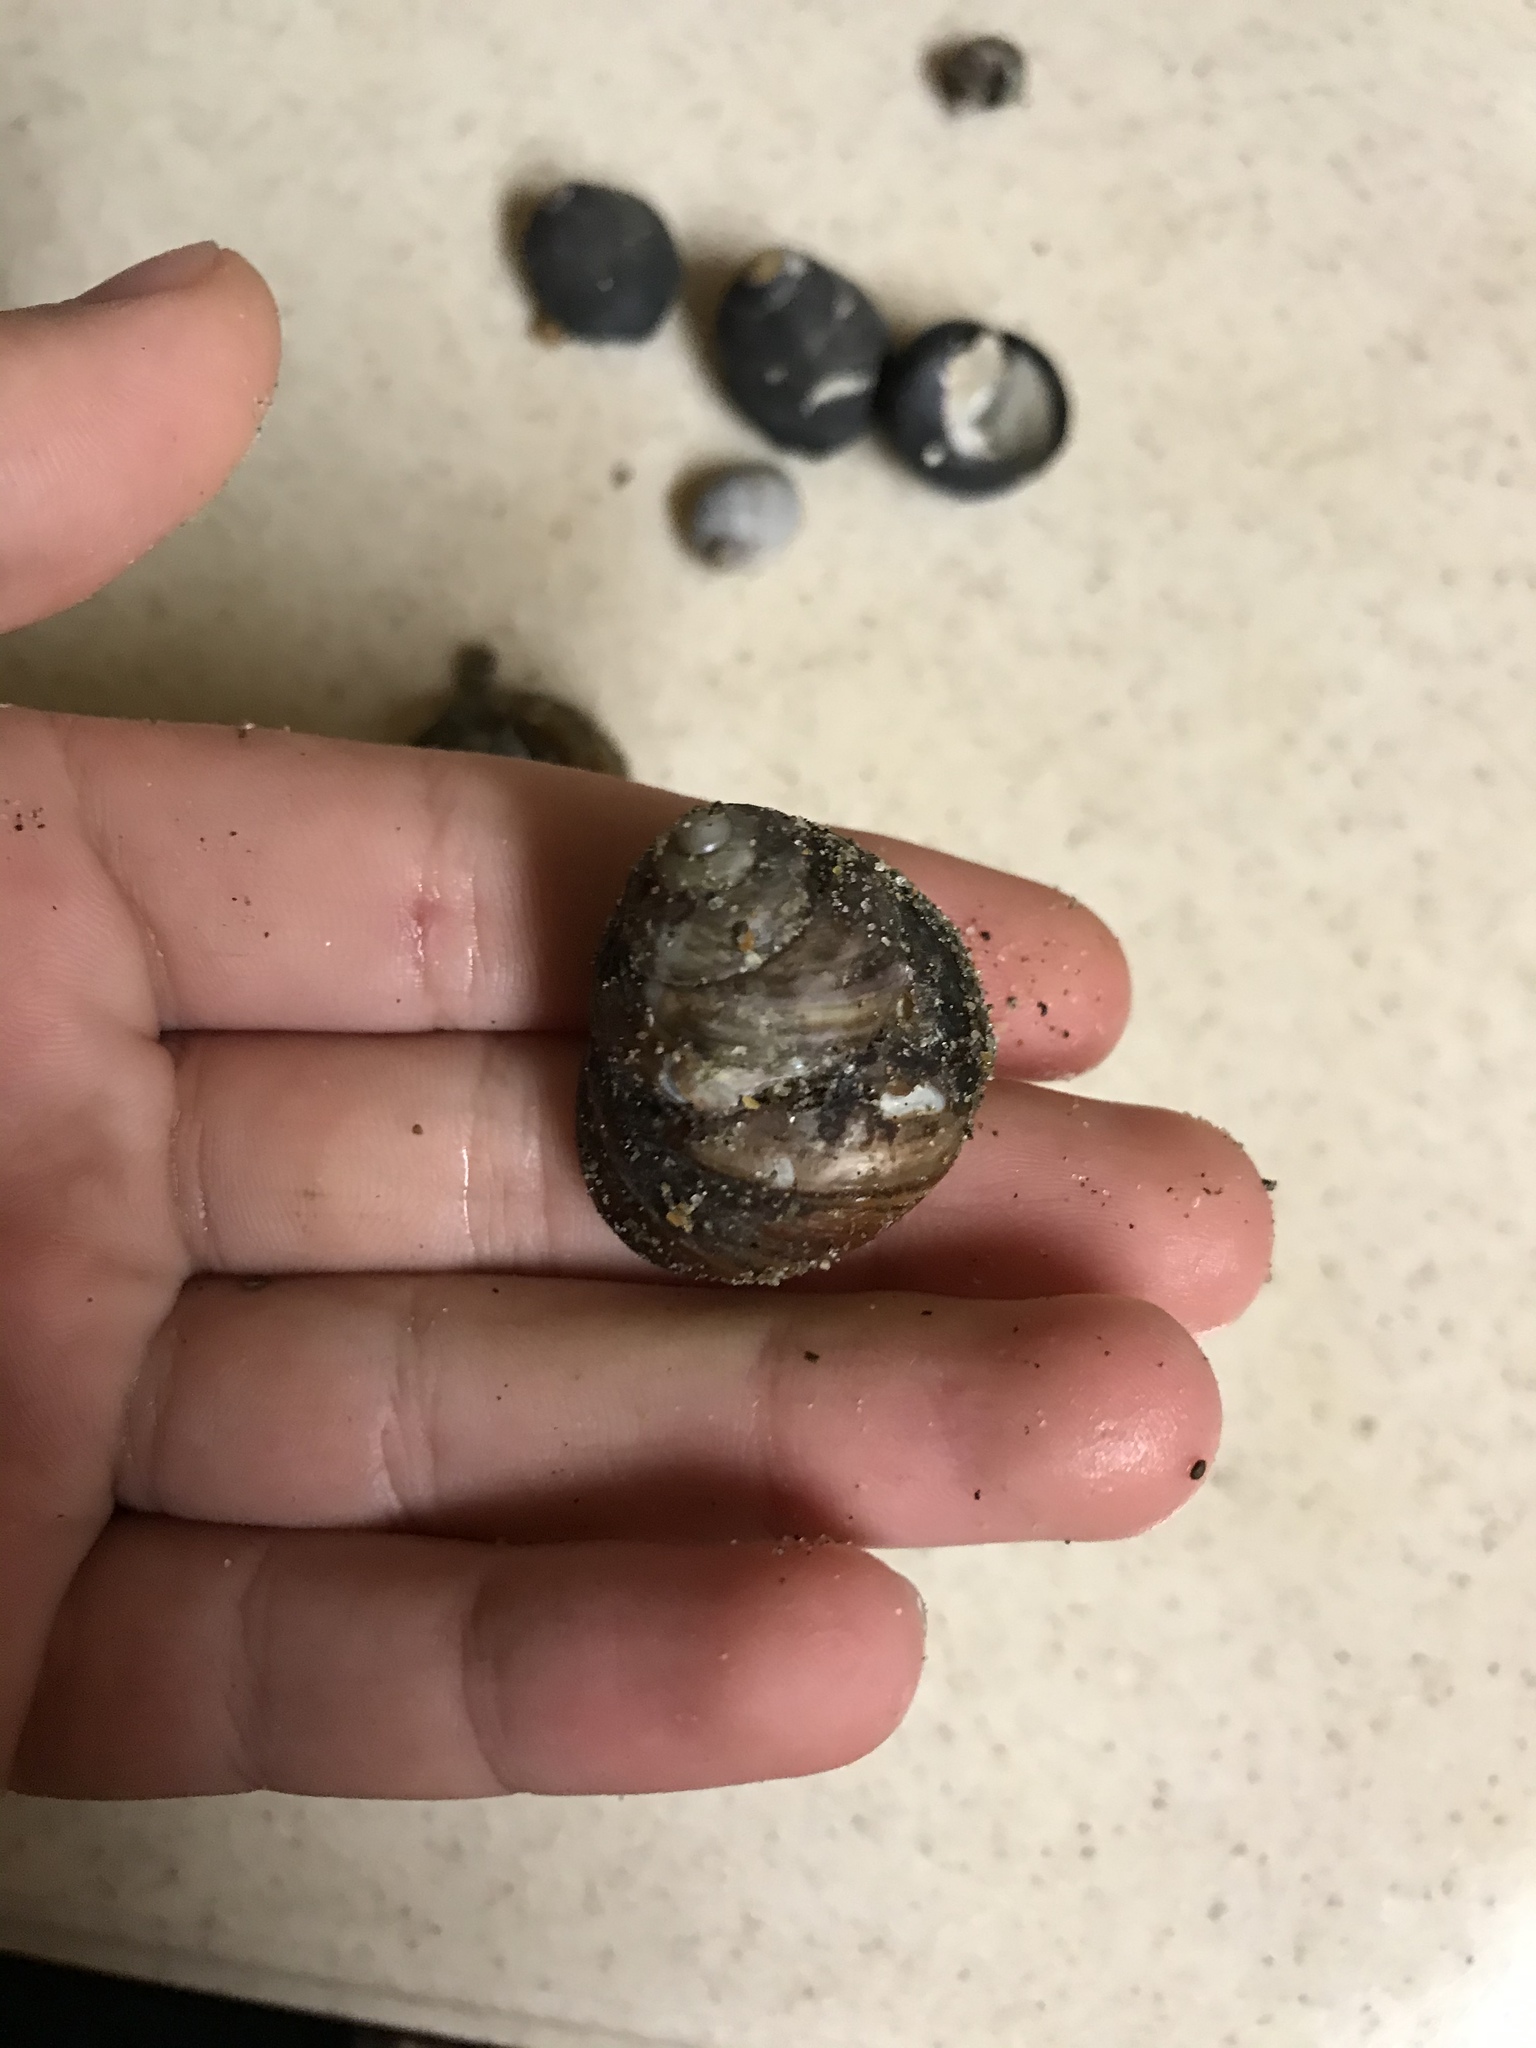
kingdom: Animalia
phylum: Mollusca
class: Gastropoda
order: Trochida
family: Tegulidae
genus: Tegula
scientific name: Tegula brunnea
